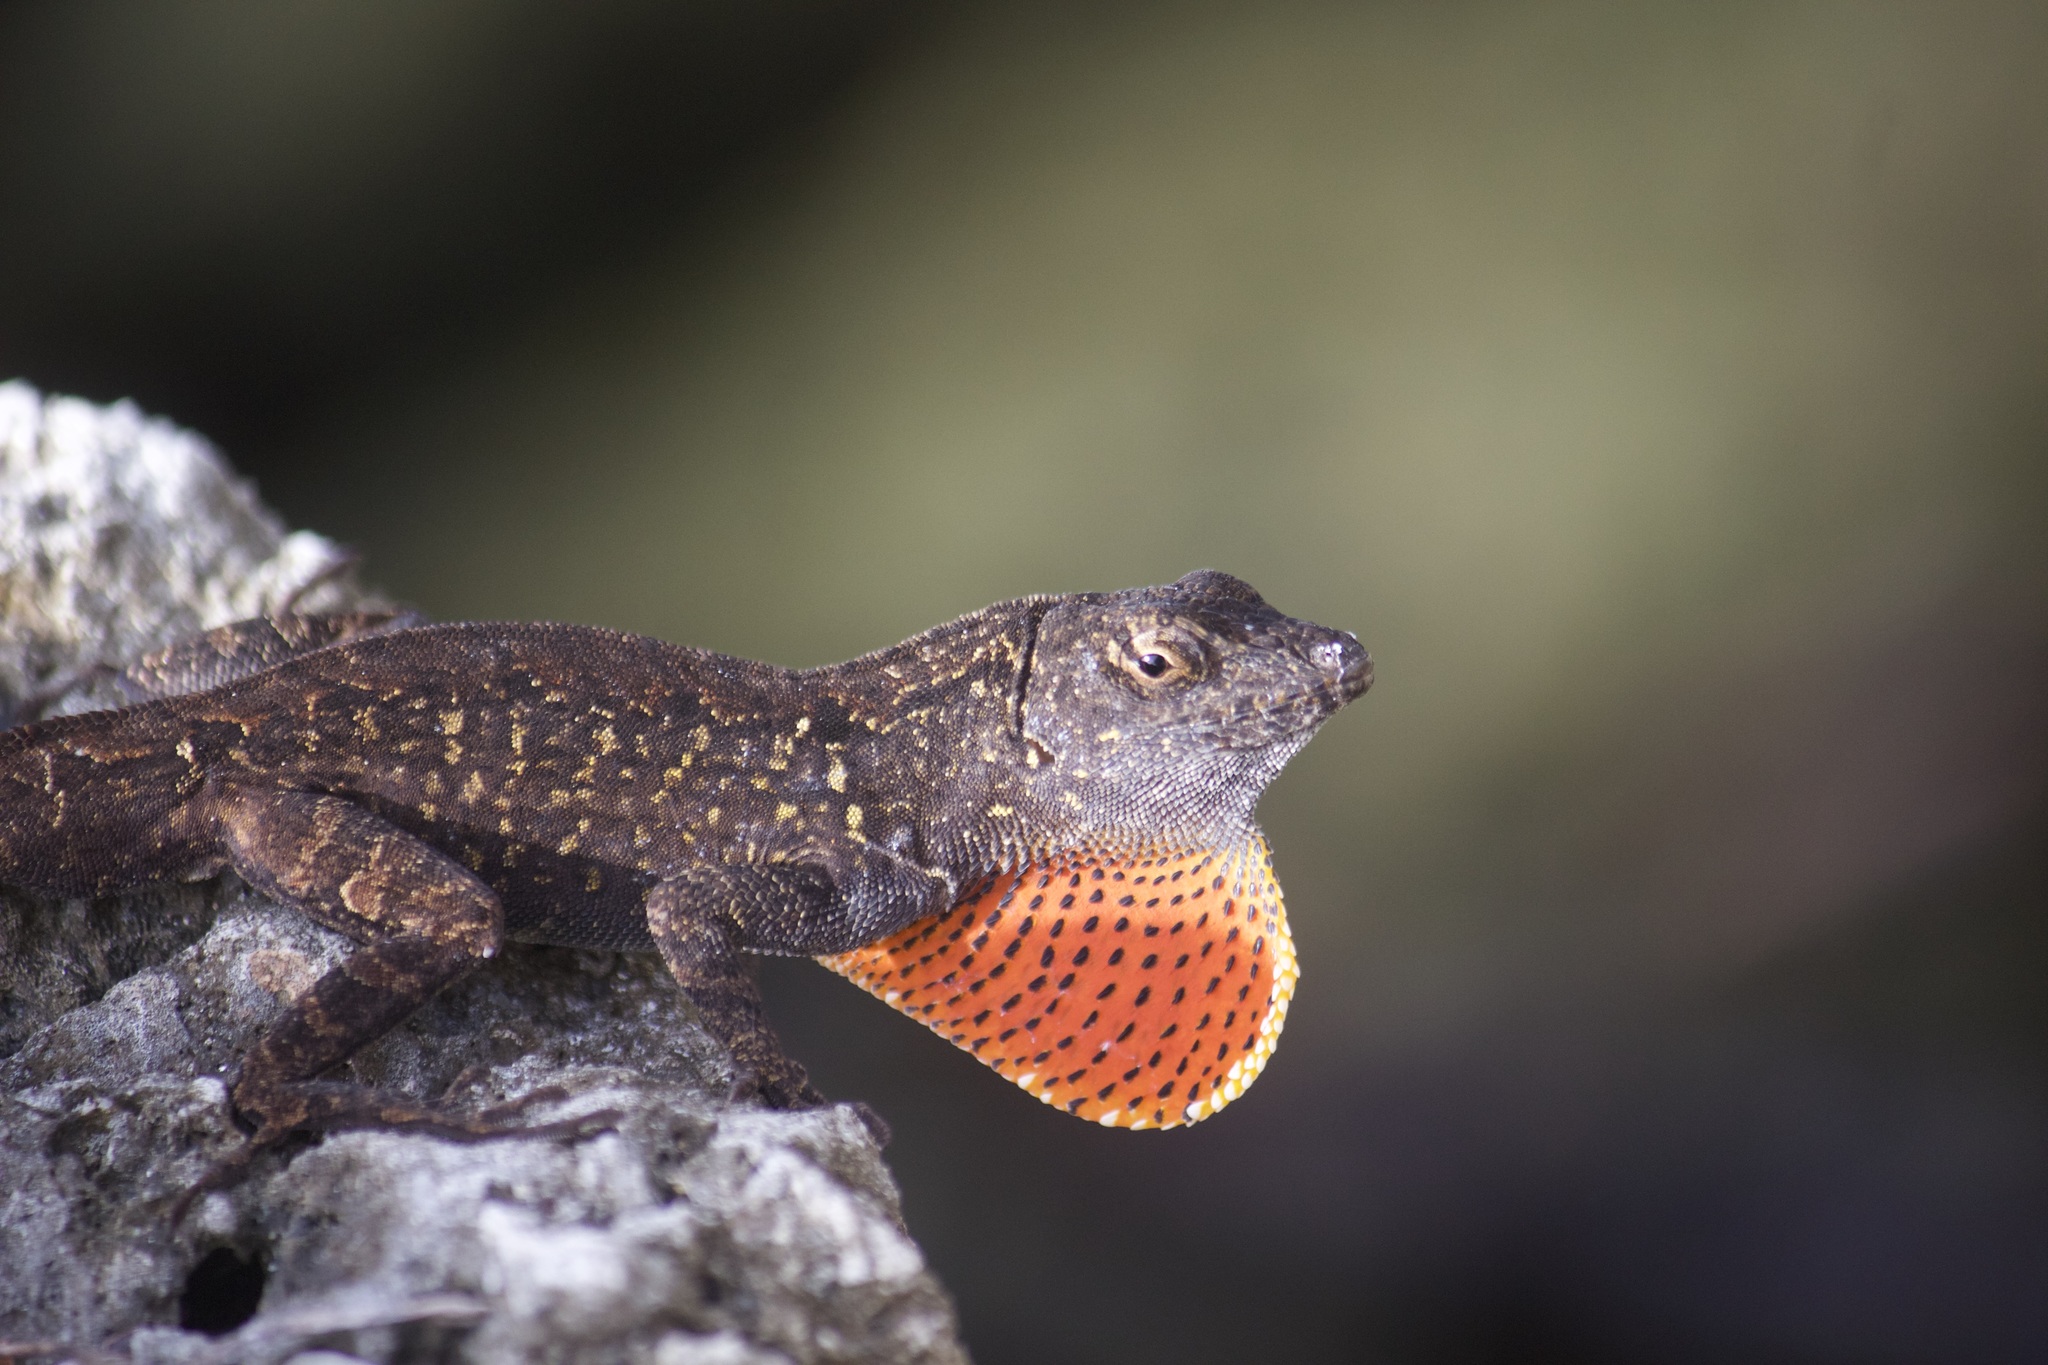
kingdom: Animalia
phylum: Chordata
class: Squamata
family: Dactyloidae
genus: Anolis
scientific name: Anolis sagrei
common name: Brown anole
